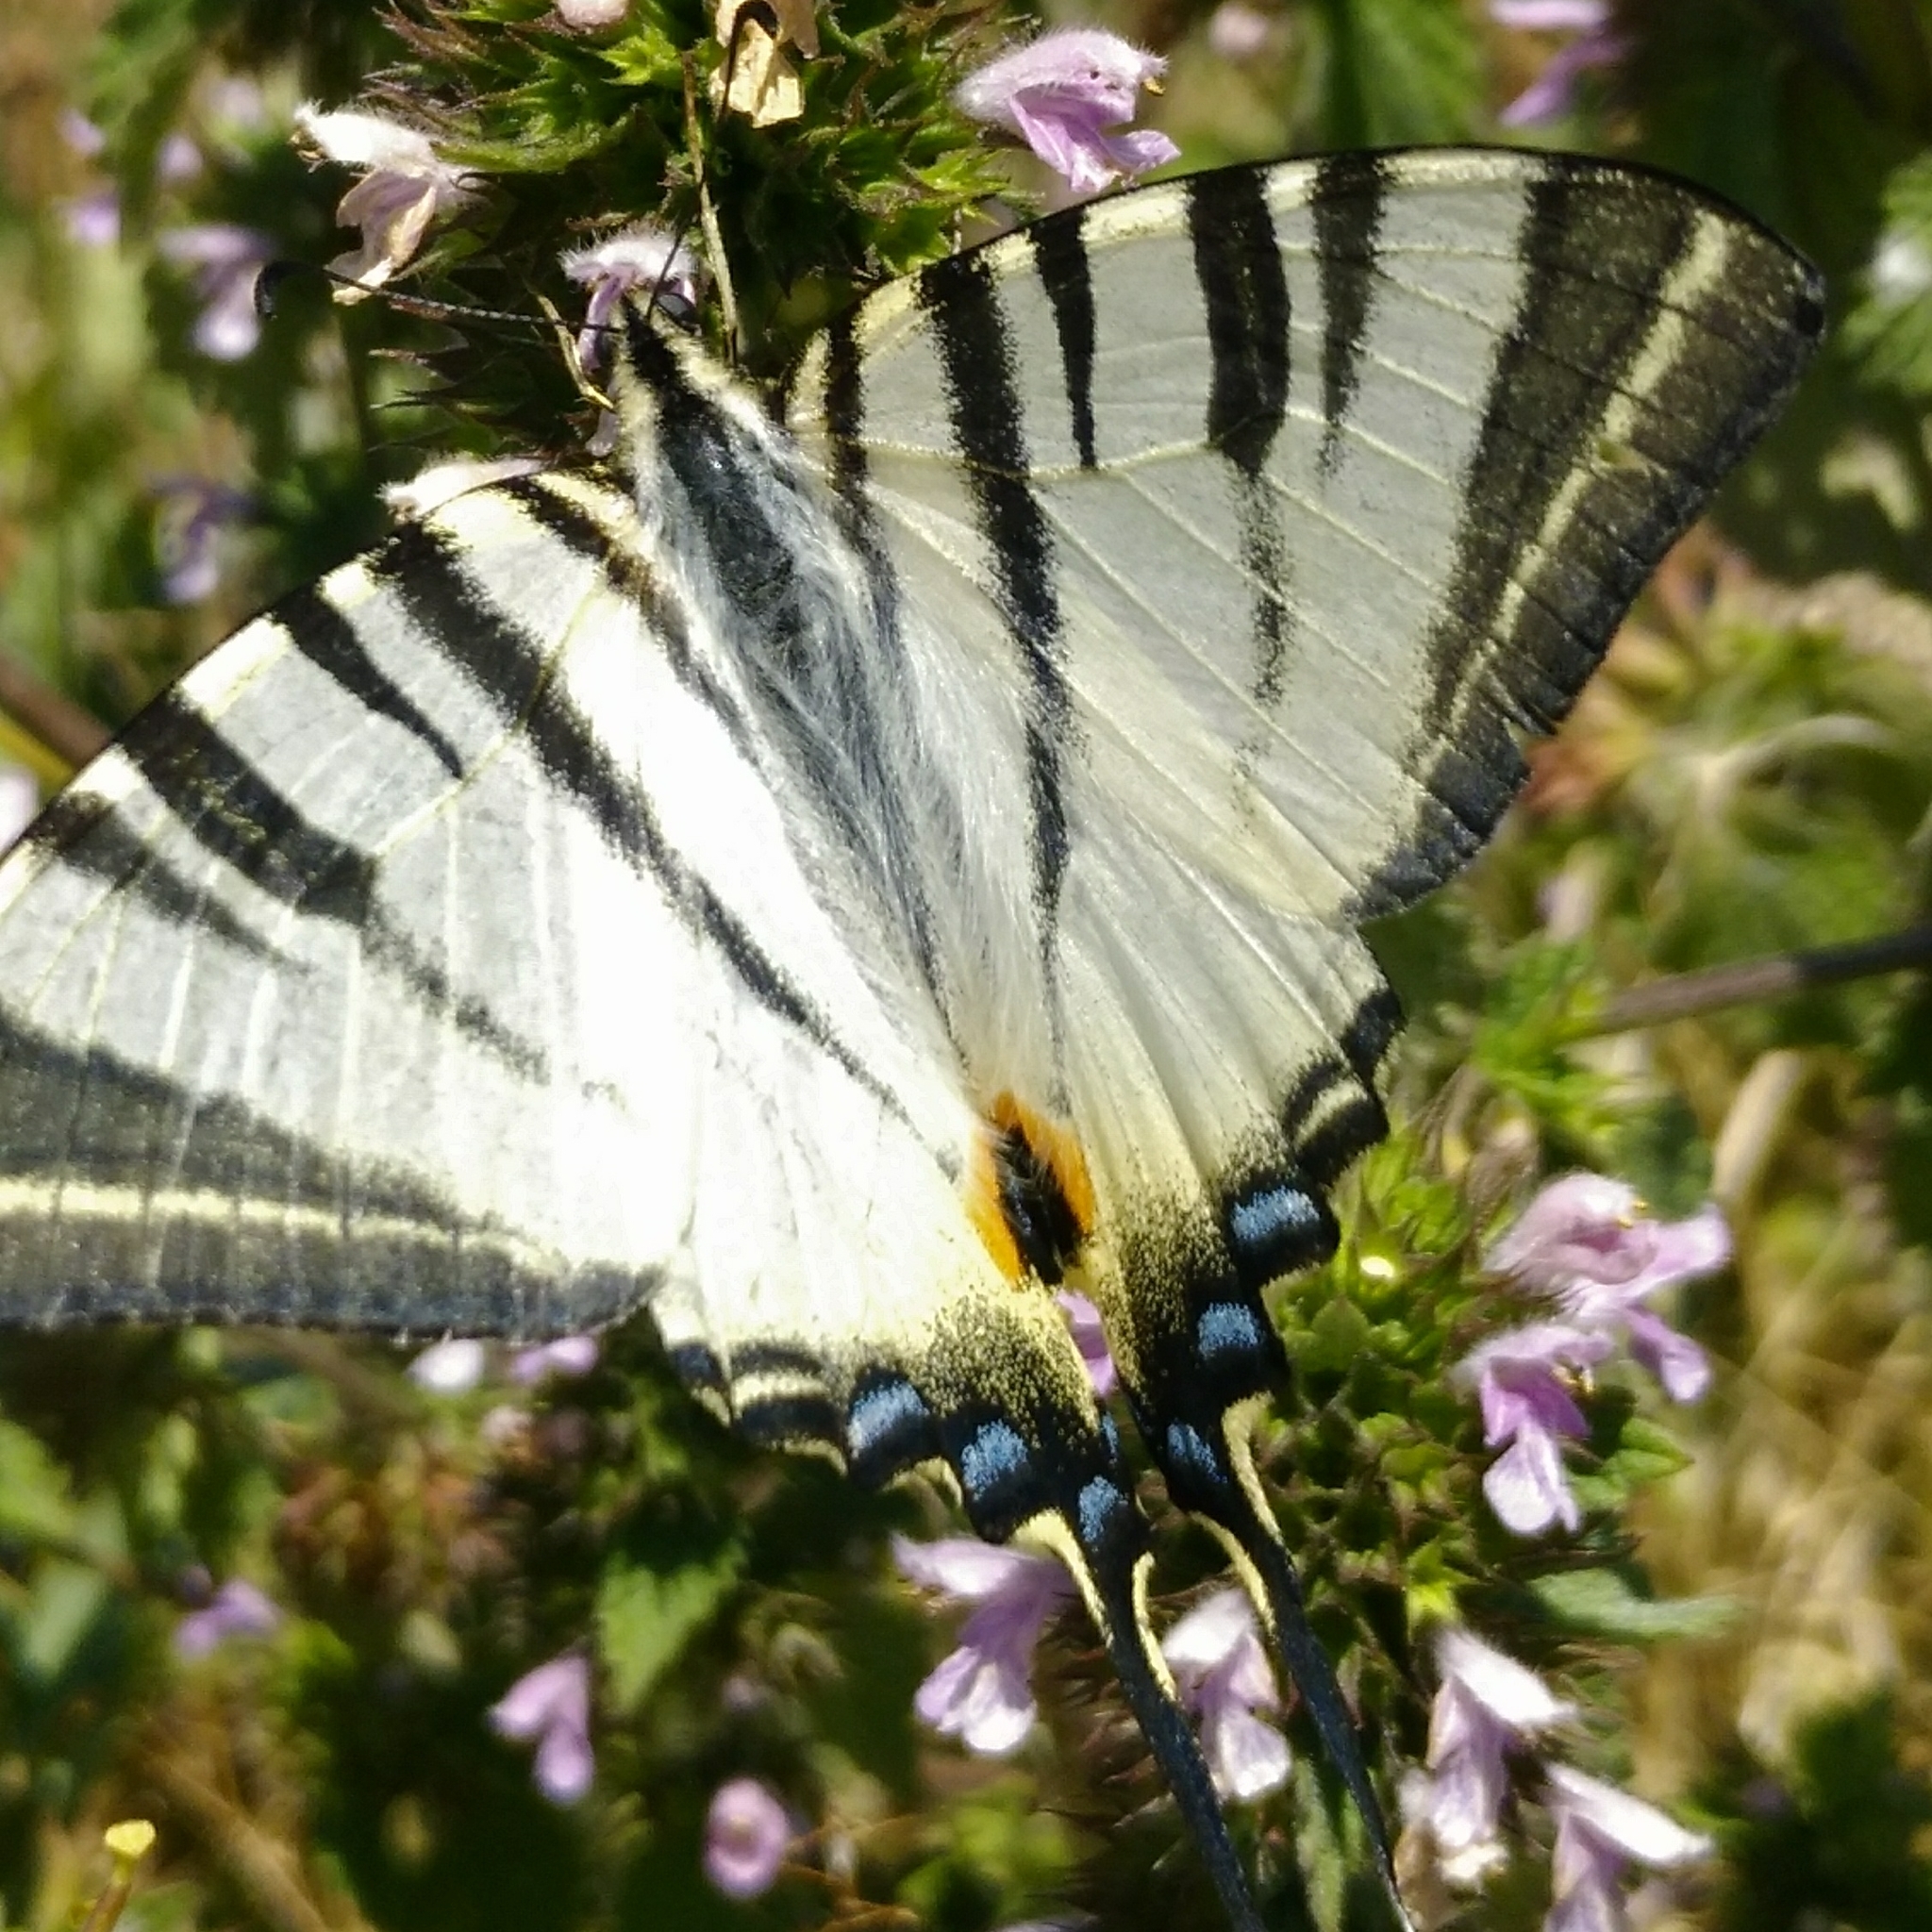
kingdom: Animalia
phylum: Arthropoda
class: Insecta
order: Lepidoptera
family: Papilionidae
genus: Iphiclides
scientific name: Iphiclides podalirius
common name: Scarce swallowtail
